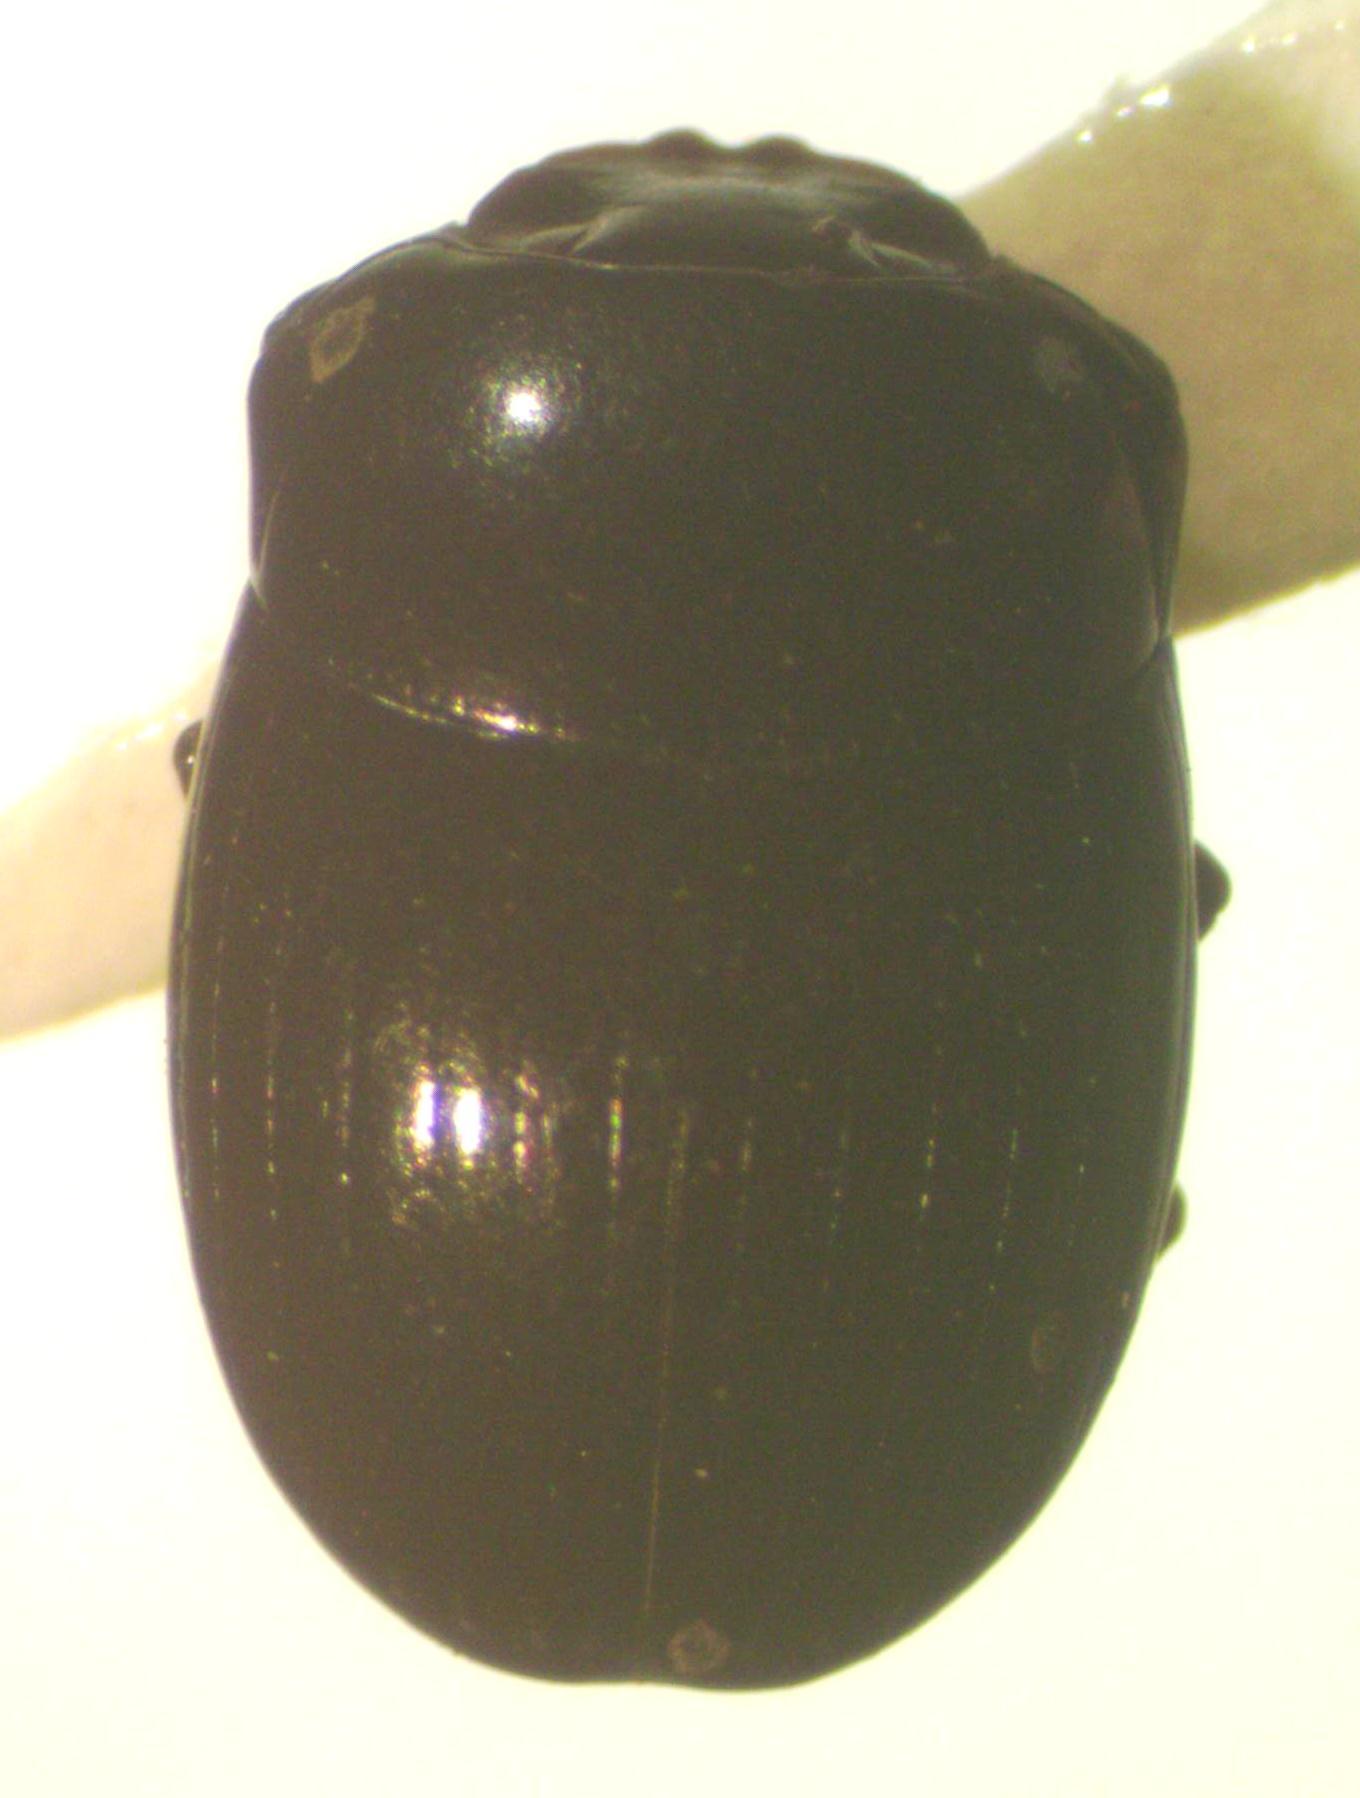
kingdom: Animalia
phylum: Arthropoda
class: Insecta
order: Coleoptera
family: Scarabaeidae
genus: Uroxys
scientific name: Uroxys micros
